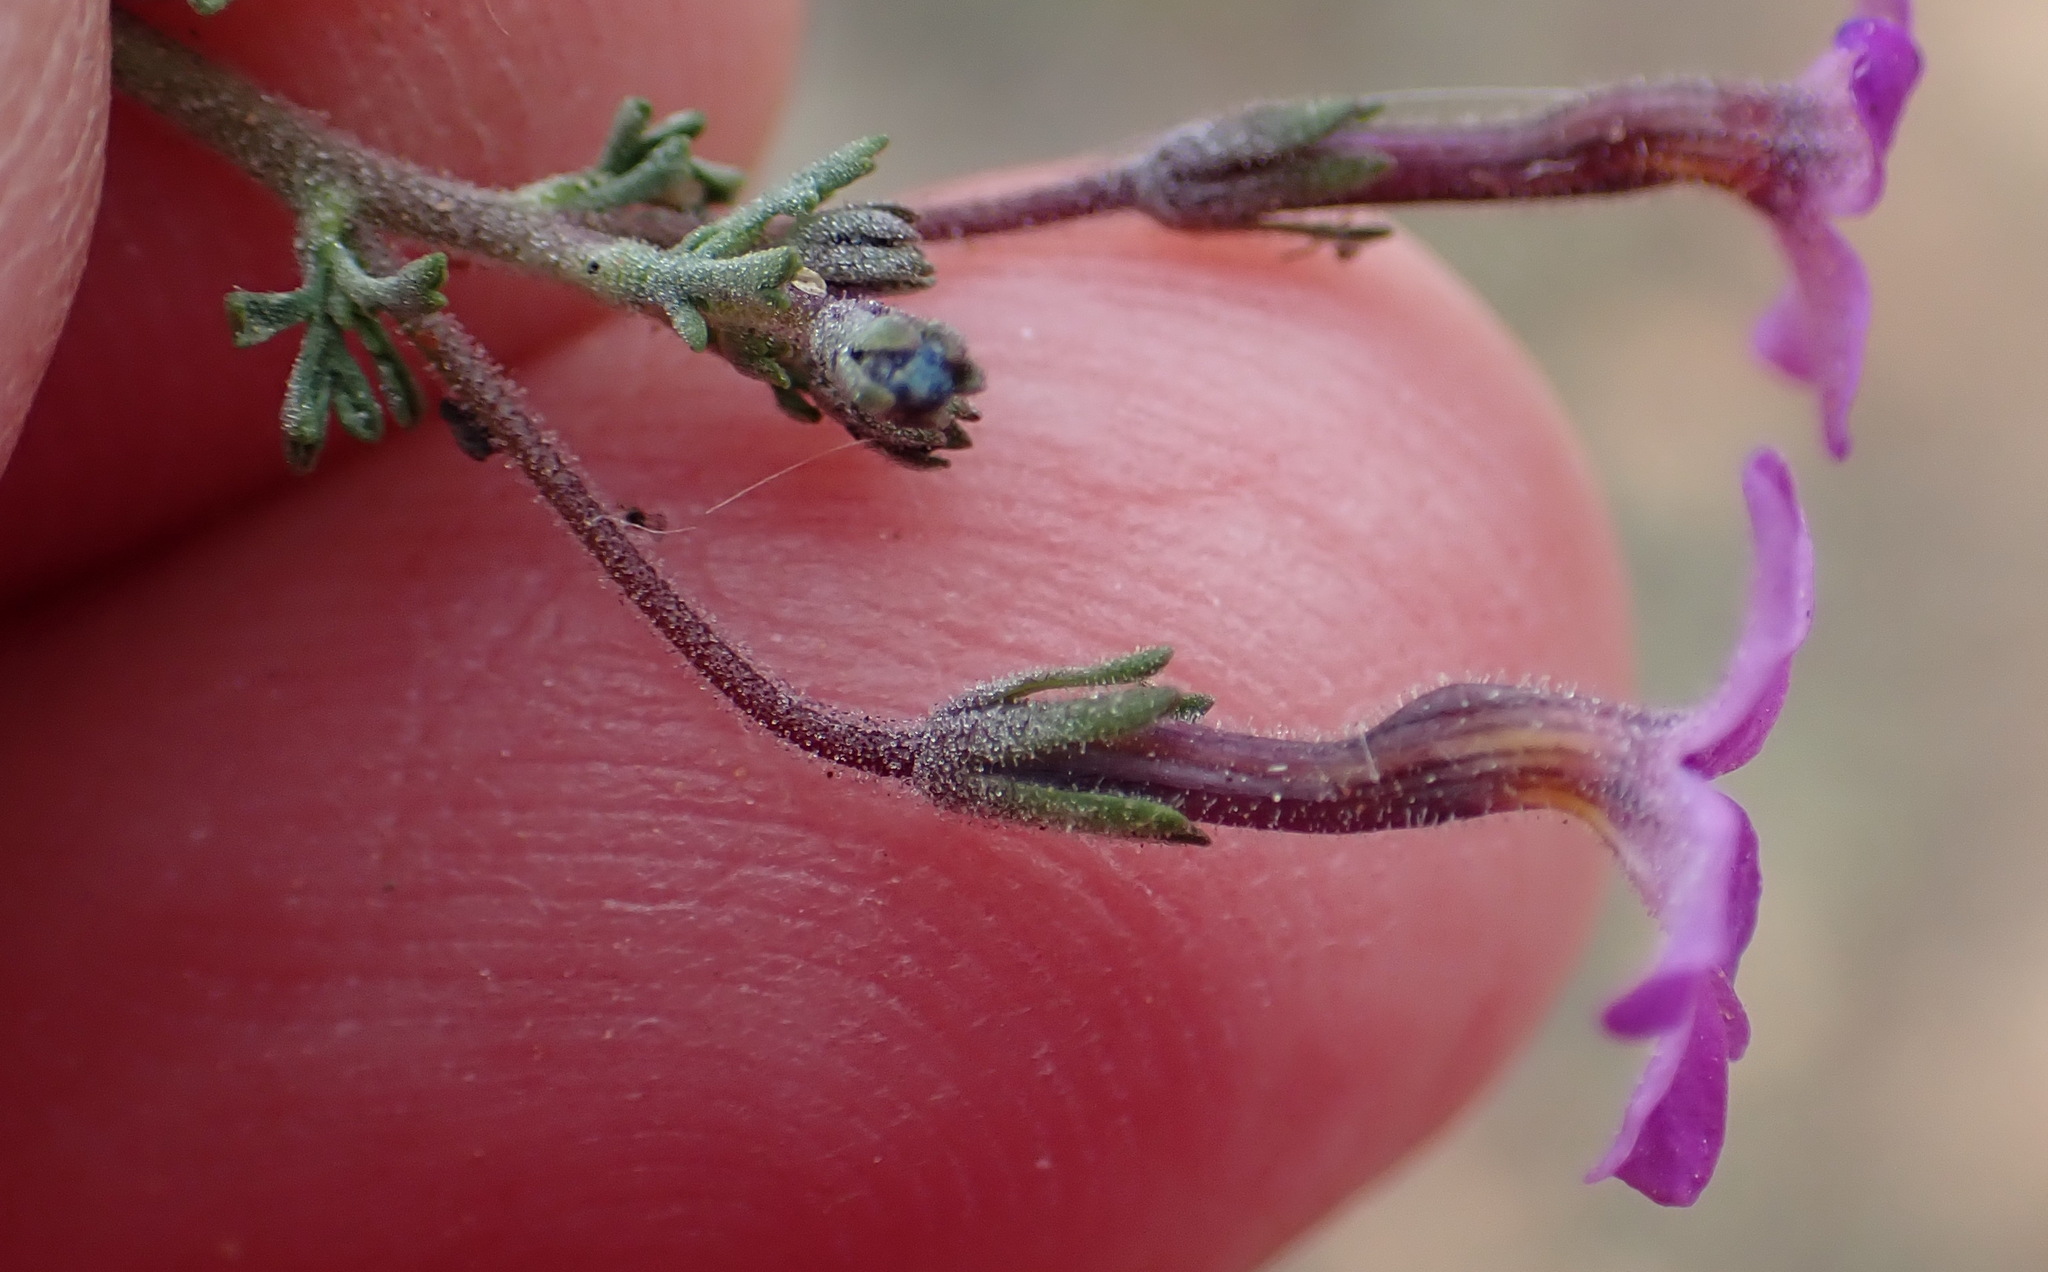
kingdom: Plantae
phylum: Tracheophyta
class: Magnoliopsida
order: Lamiales
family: Scrophulariaceae
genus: Jamesbrittenia
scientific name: Jamesbrittenia tenuifolia
